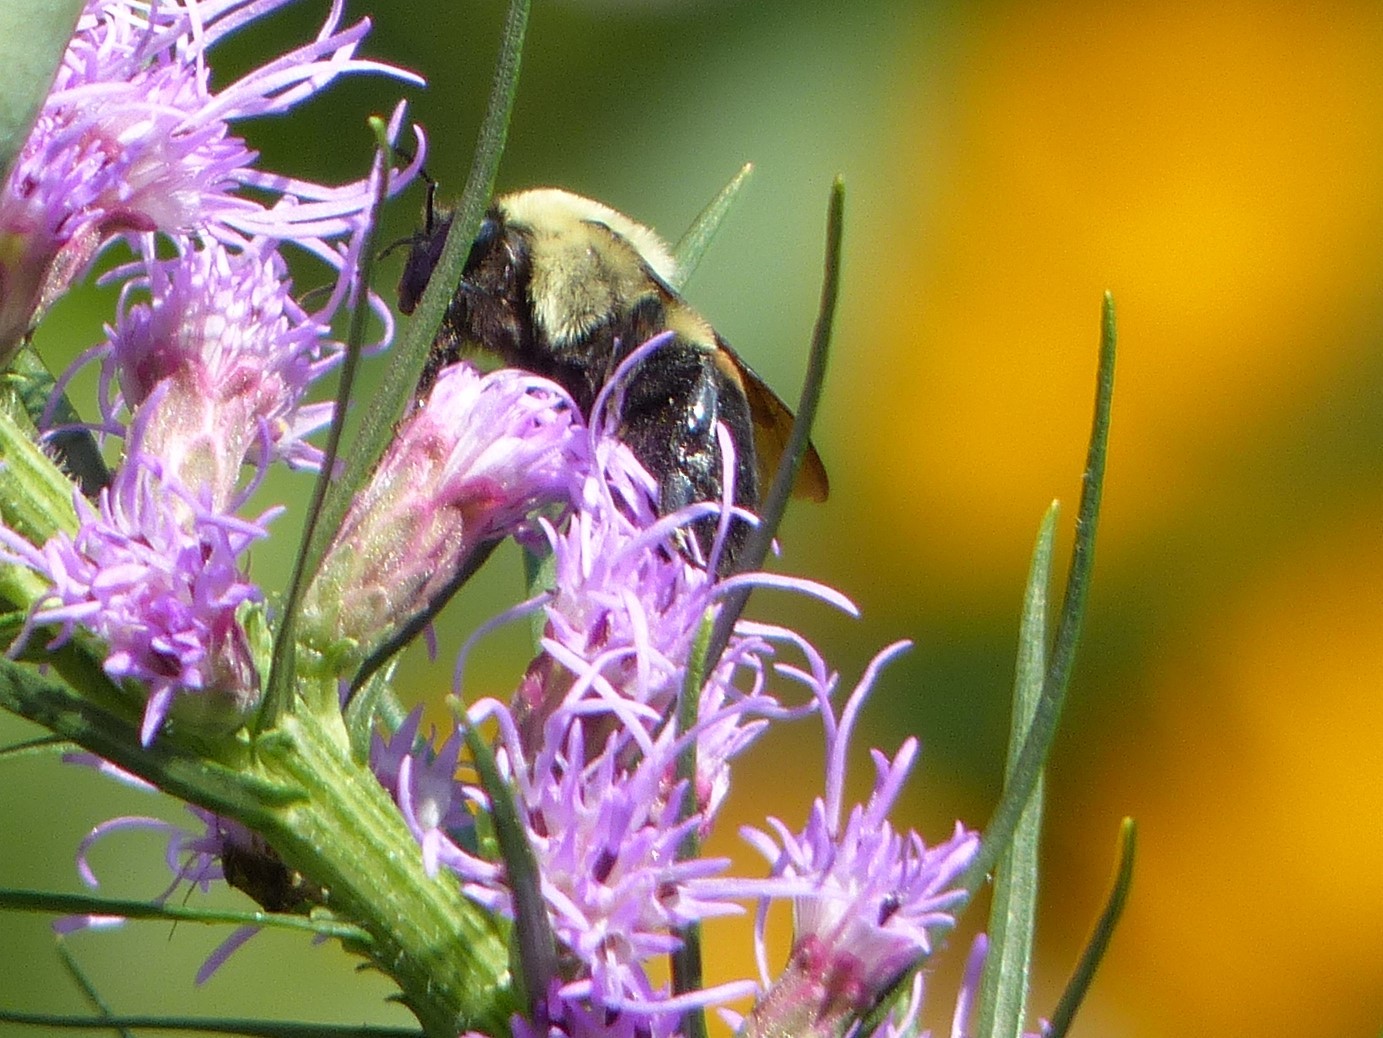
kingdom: Animalia
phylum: Arthropoda
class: Insecta
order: Hymenoptera
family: Apidae
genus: Bombus
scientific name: Bombus griseocollis
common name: Brown-belted bumble bee
